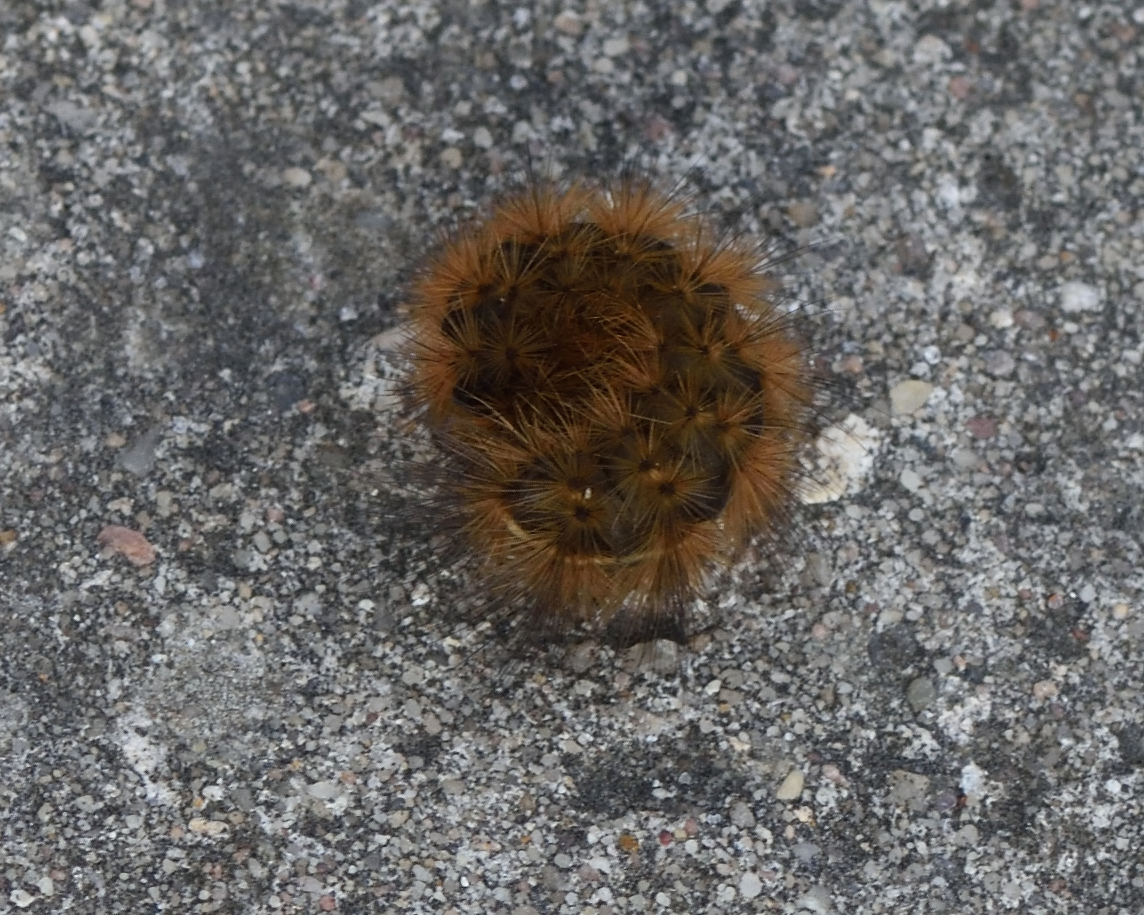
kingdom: Animalia
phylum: Arthropoda
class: Insecta
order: Lepidoptera
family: Erebidae
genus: Phragmatobia
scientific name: Phragmatobia fuliginosa
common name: Ruby tiger
